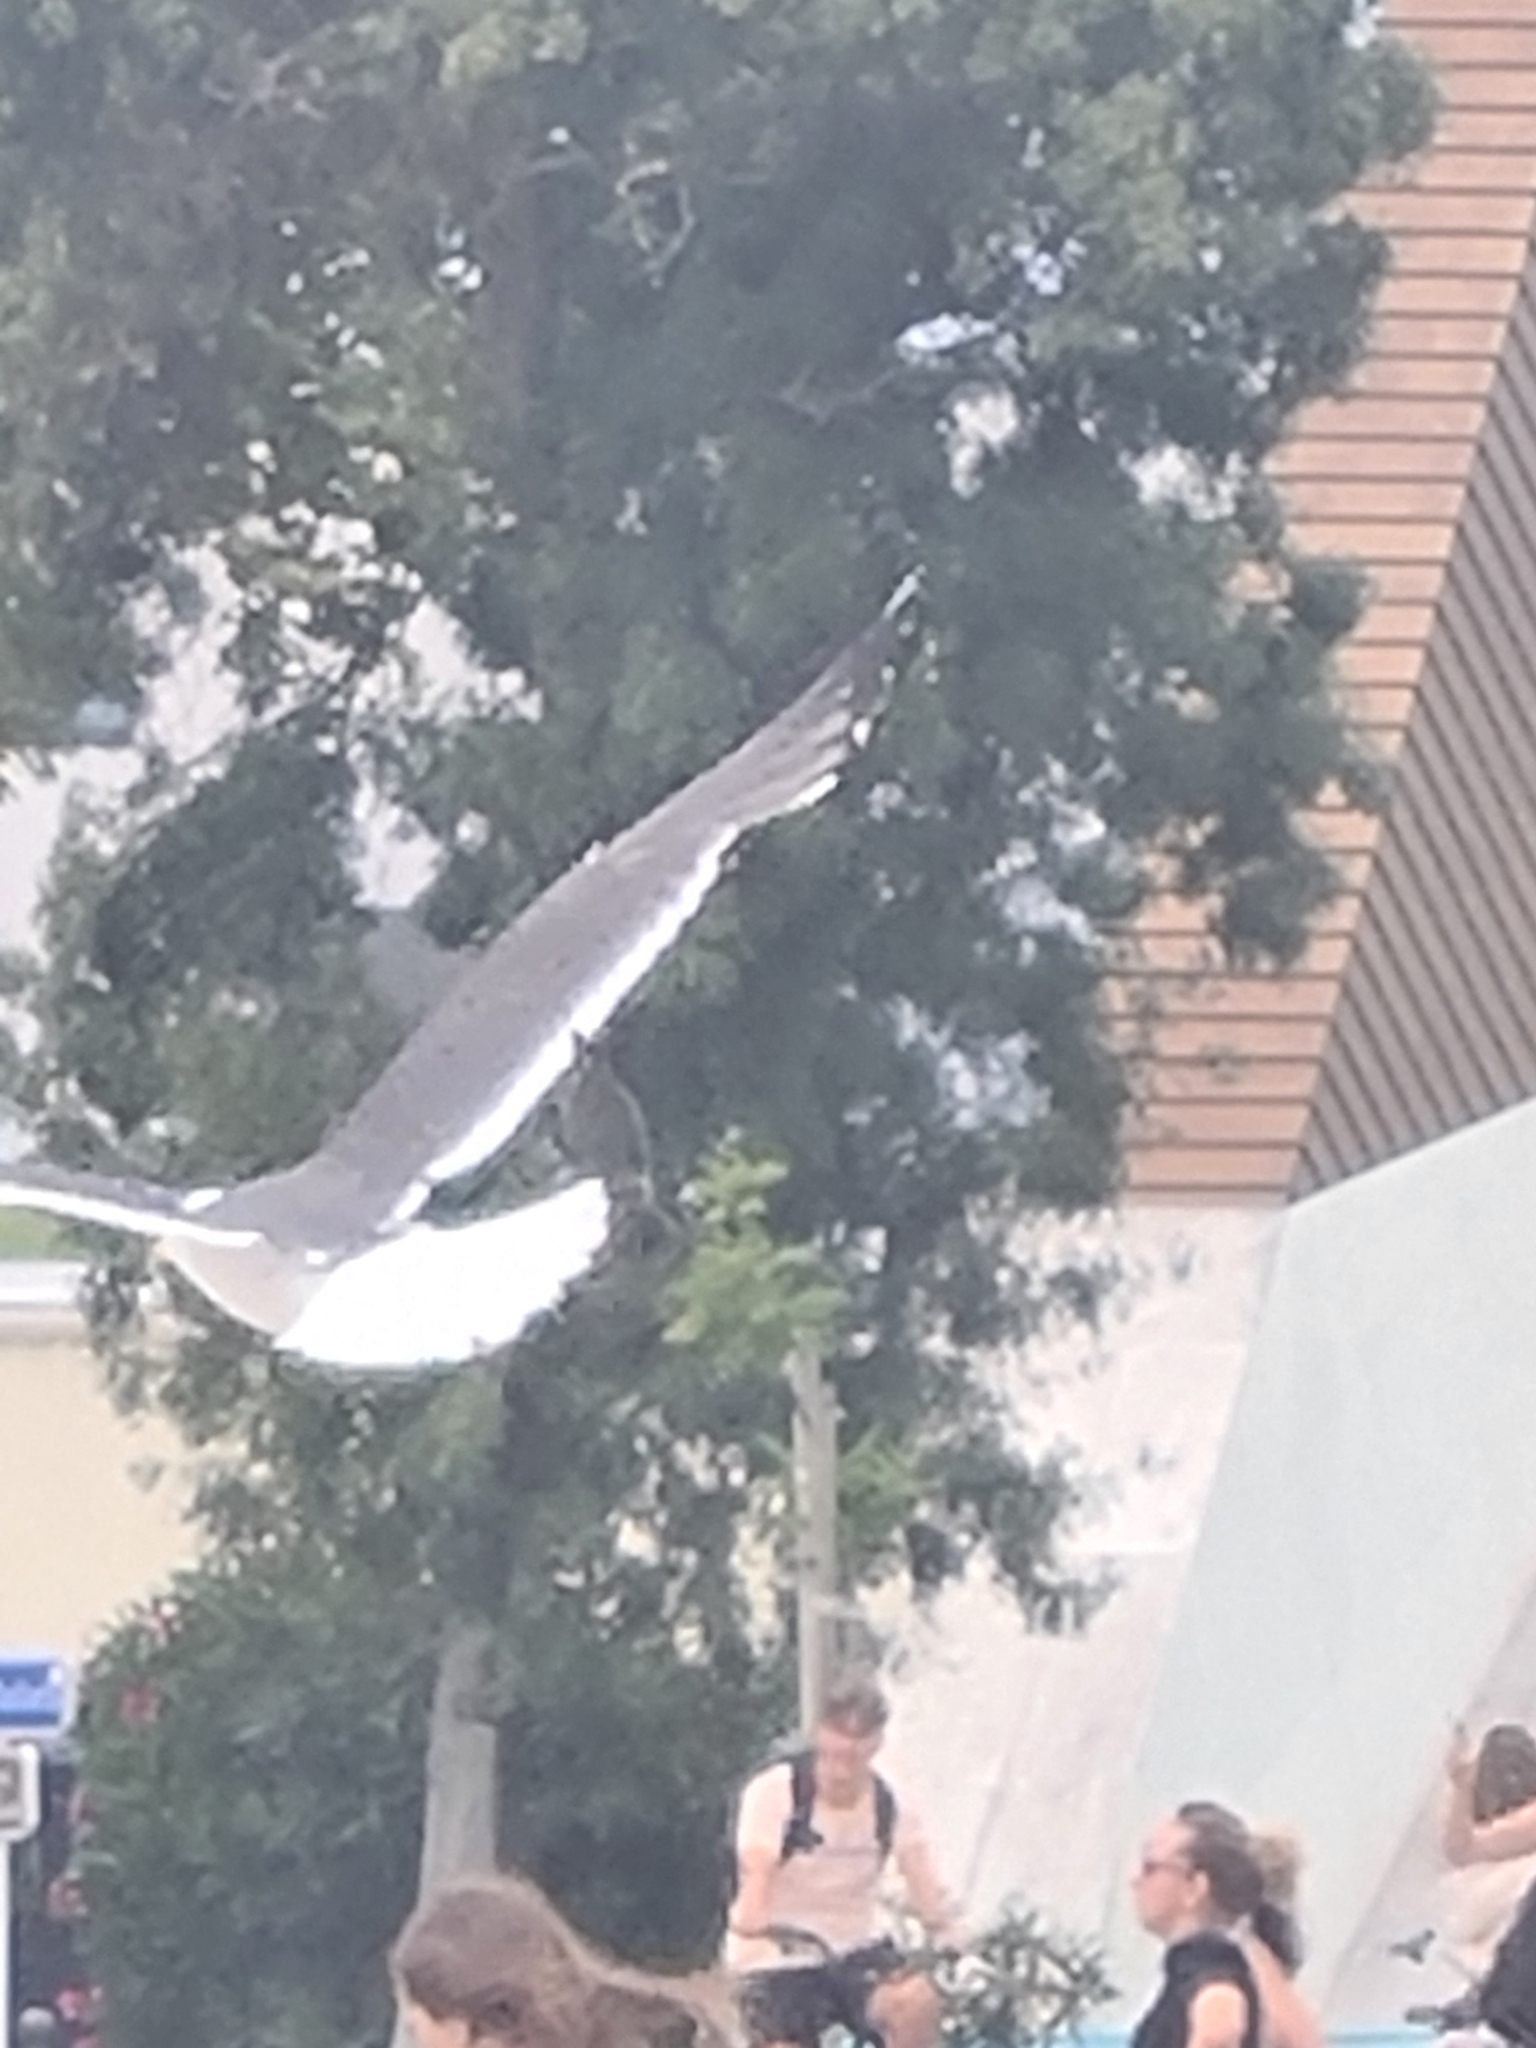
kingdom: Animalia
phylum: Chordata
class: Aves
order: Charadriiformes
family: Laridae
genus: Larus
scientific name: Larus michahellis
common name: Yellow-legged gull
